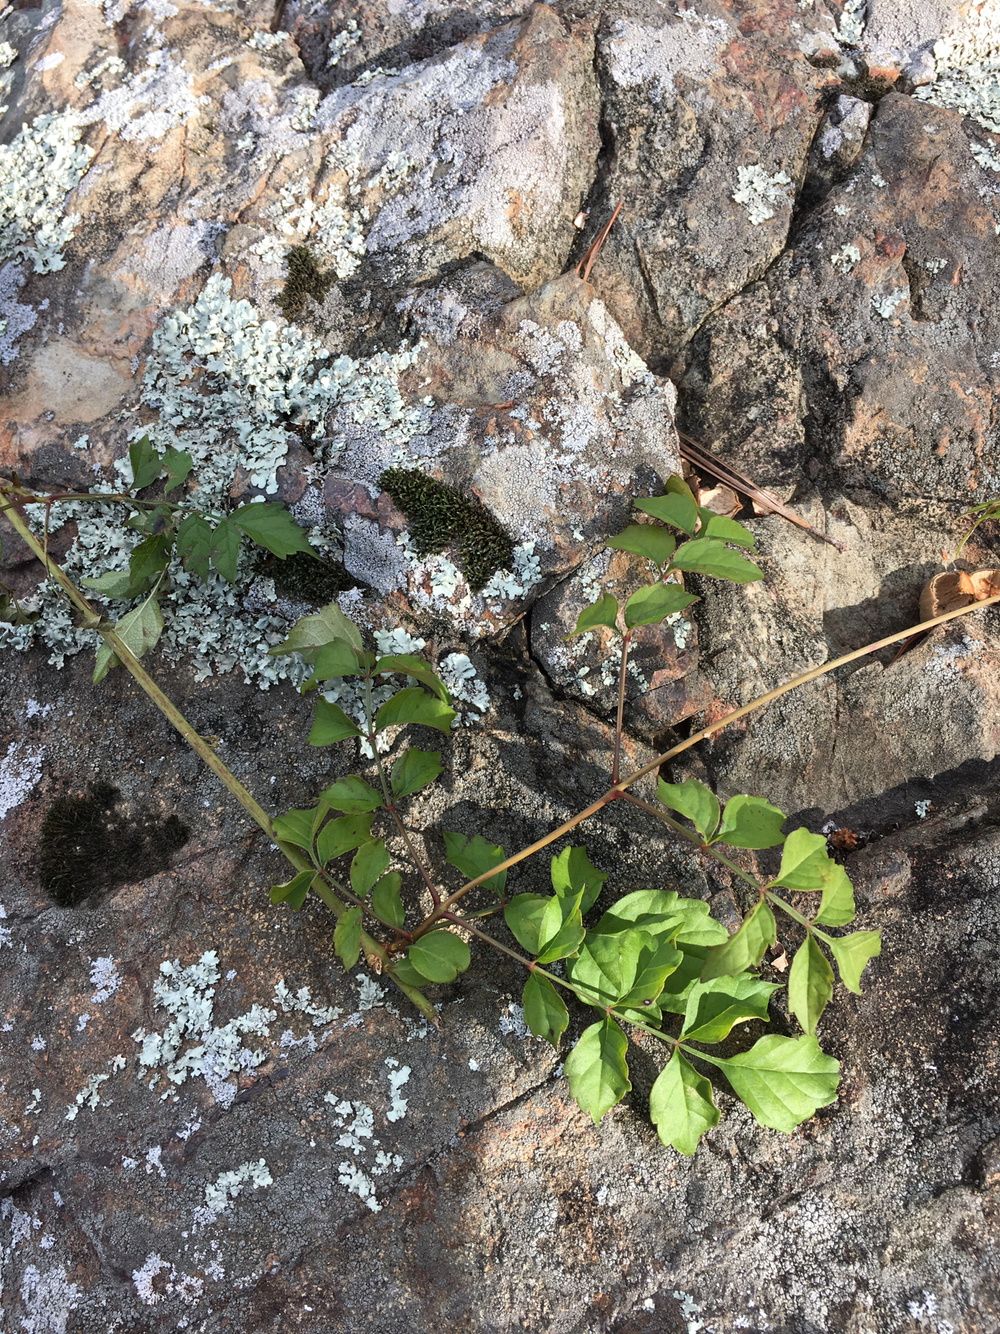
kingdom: Plantae
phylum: Tracheophyta
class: Magnoliopsida
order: Lamiales
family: Bignoniaceae
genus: Campsis
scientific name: Campsis radicans
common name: Trumpet-creeper
